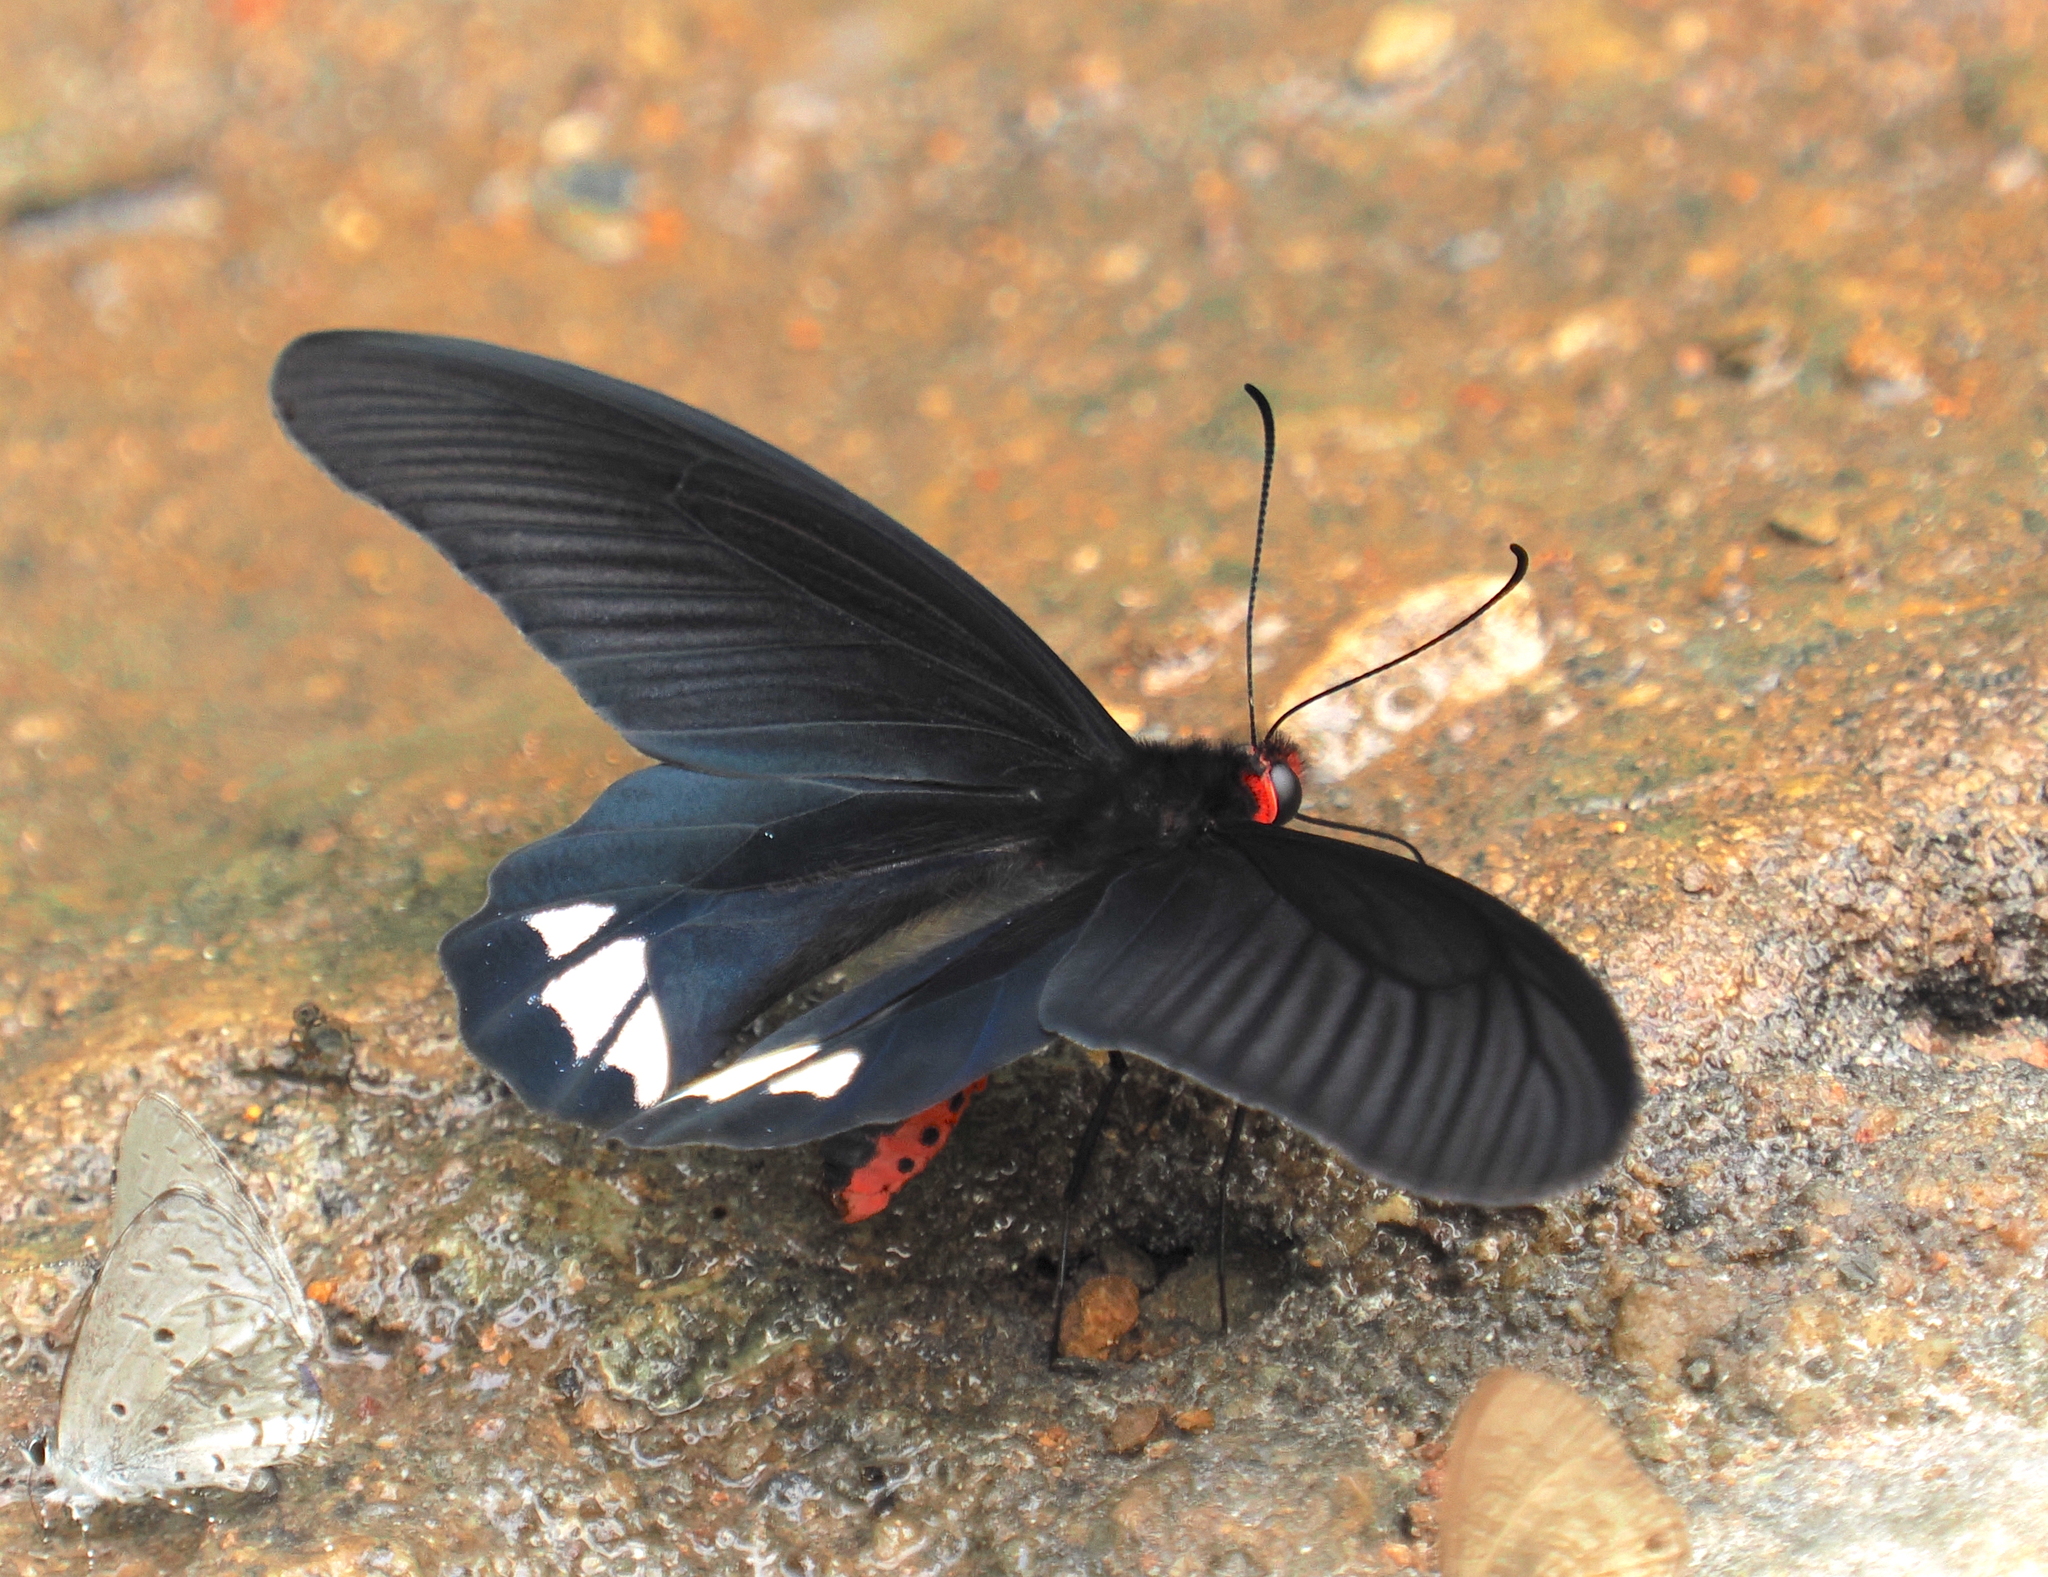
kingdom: Animalia
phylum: Arthropoda
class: Insecta
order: Lepidoptera
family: Papilionidae
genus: Atrophaneura
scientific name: Atrophaneura zaleucus
